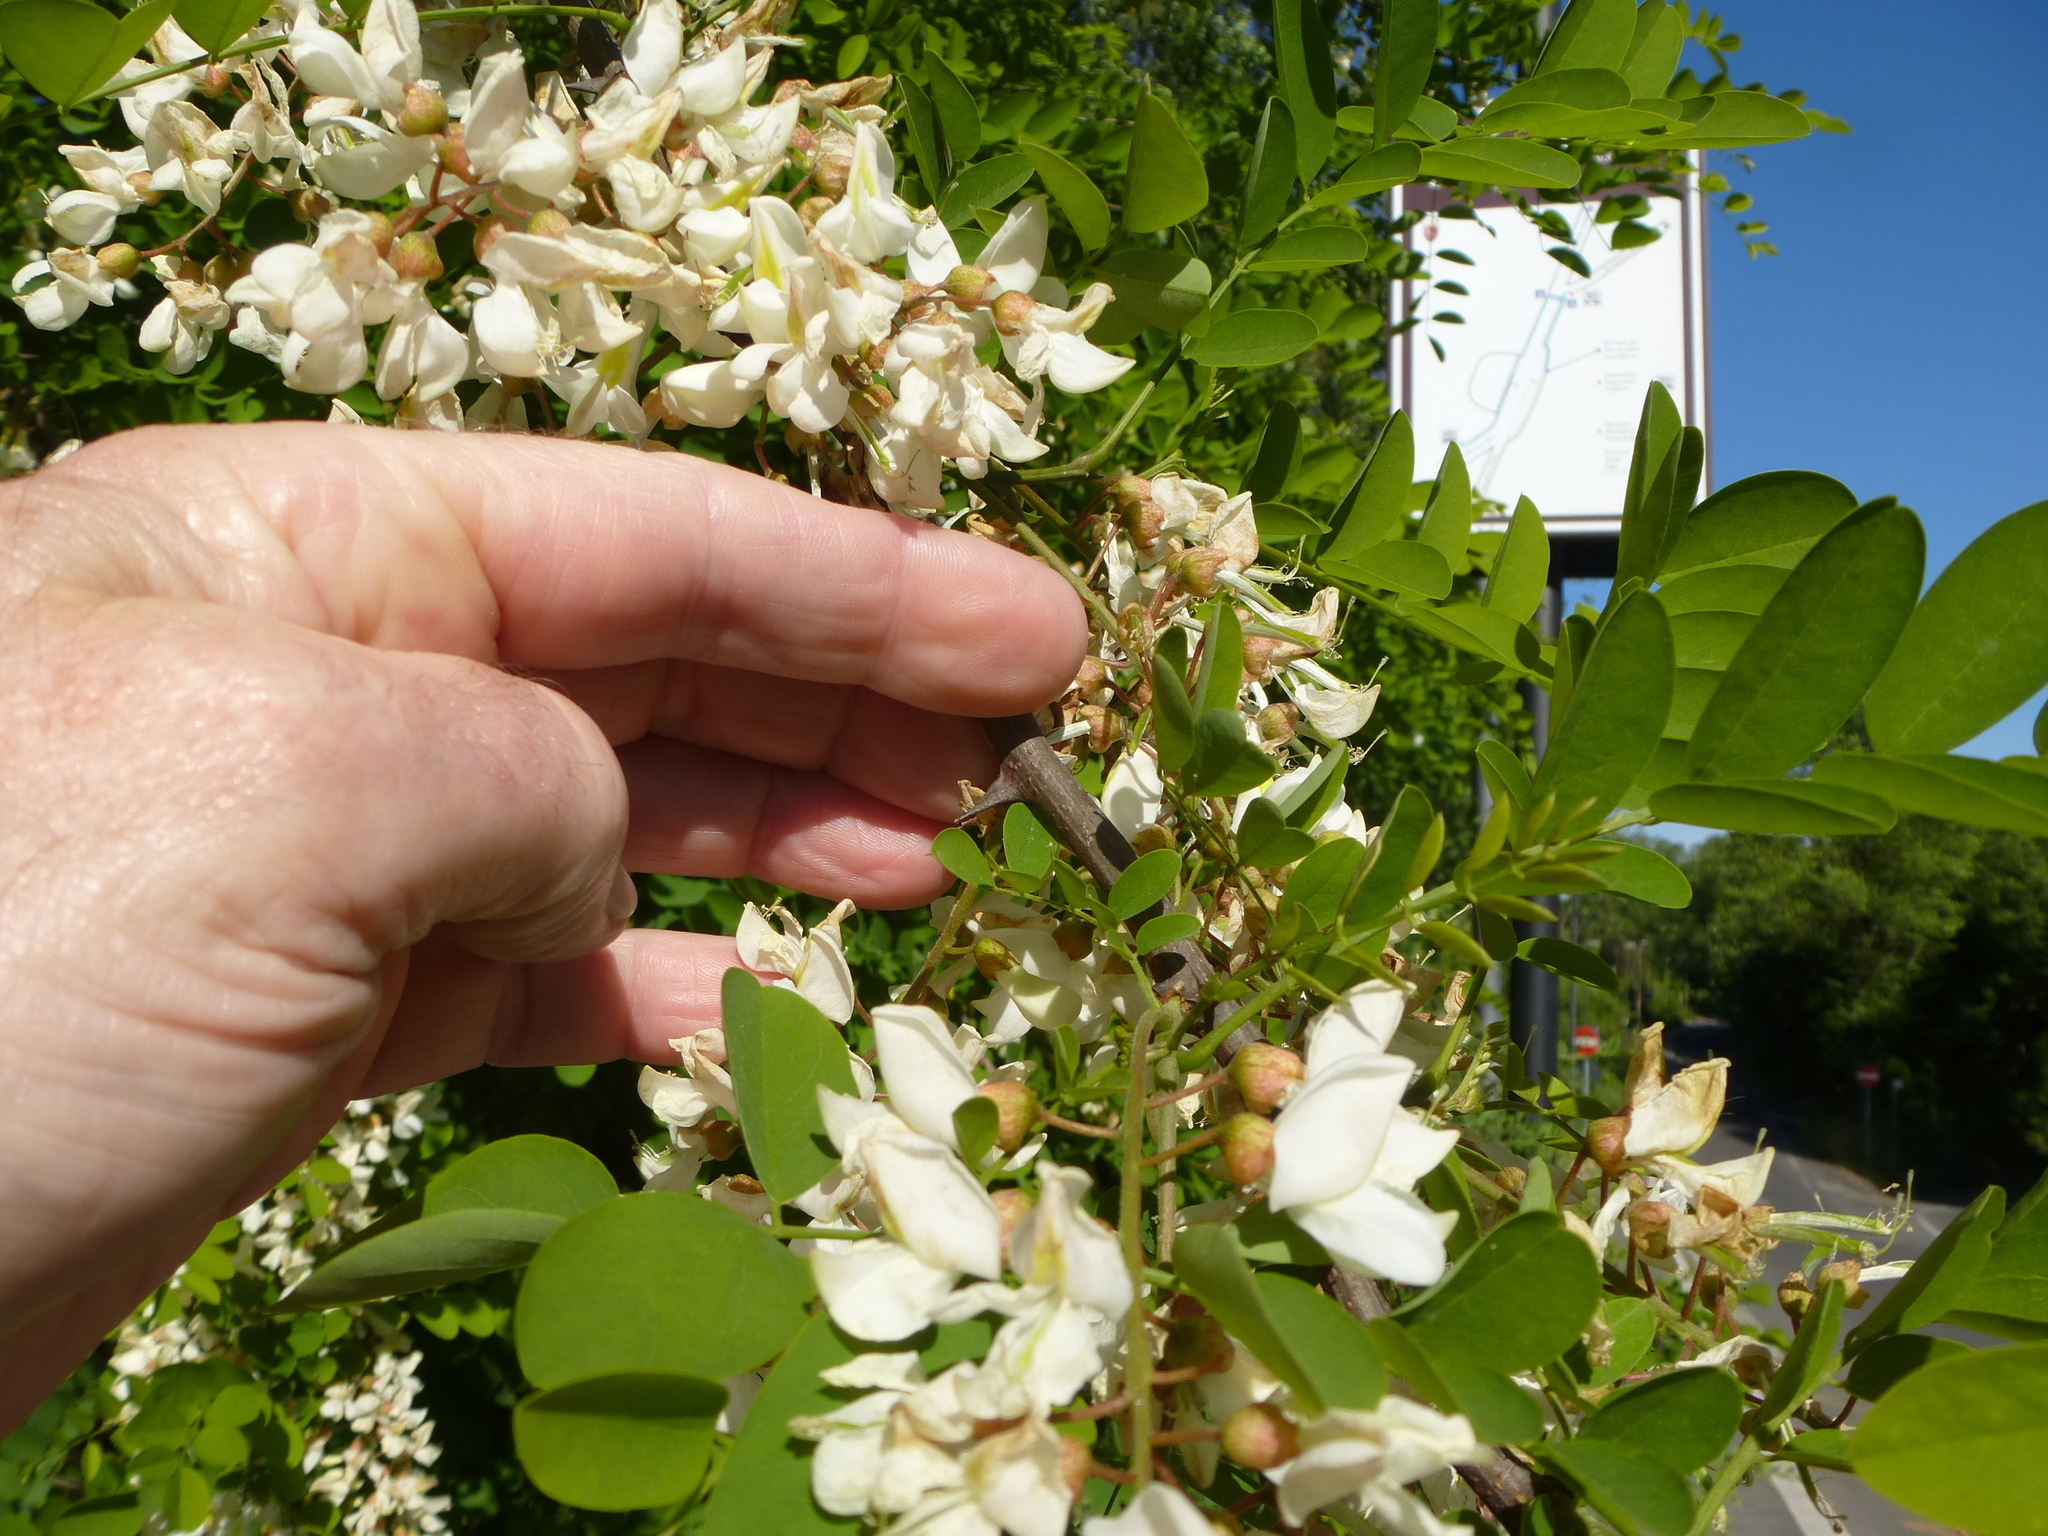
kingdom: Plantae
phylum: Tracheophyta
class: Magnoliopsida
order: Fabales
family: Fabaceae
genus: Robinia
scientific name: Robinia pseudoacacia
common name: Black locust
